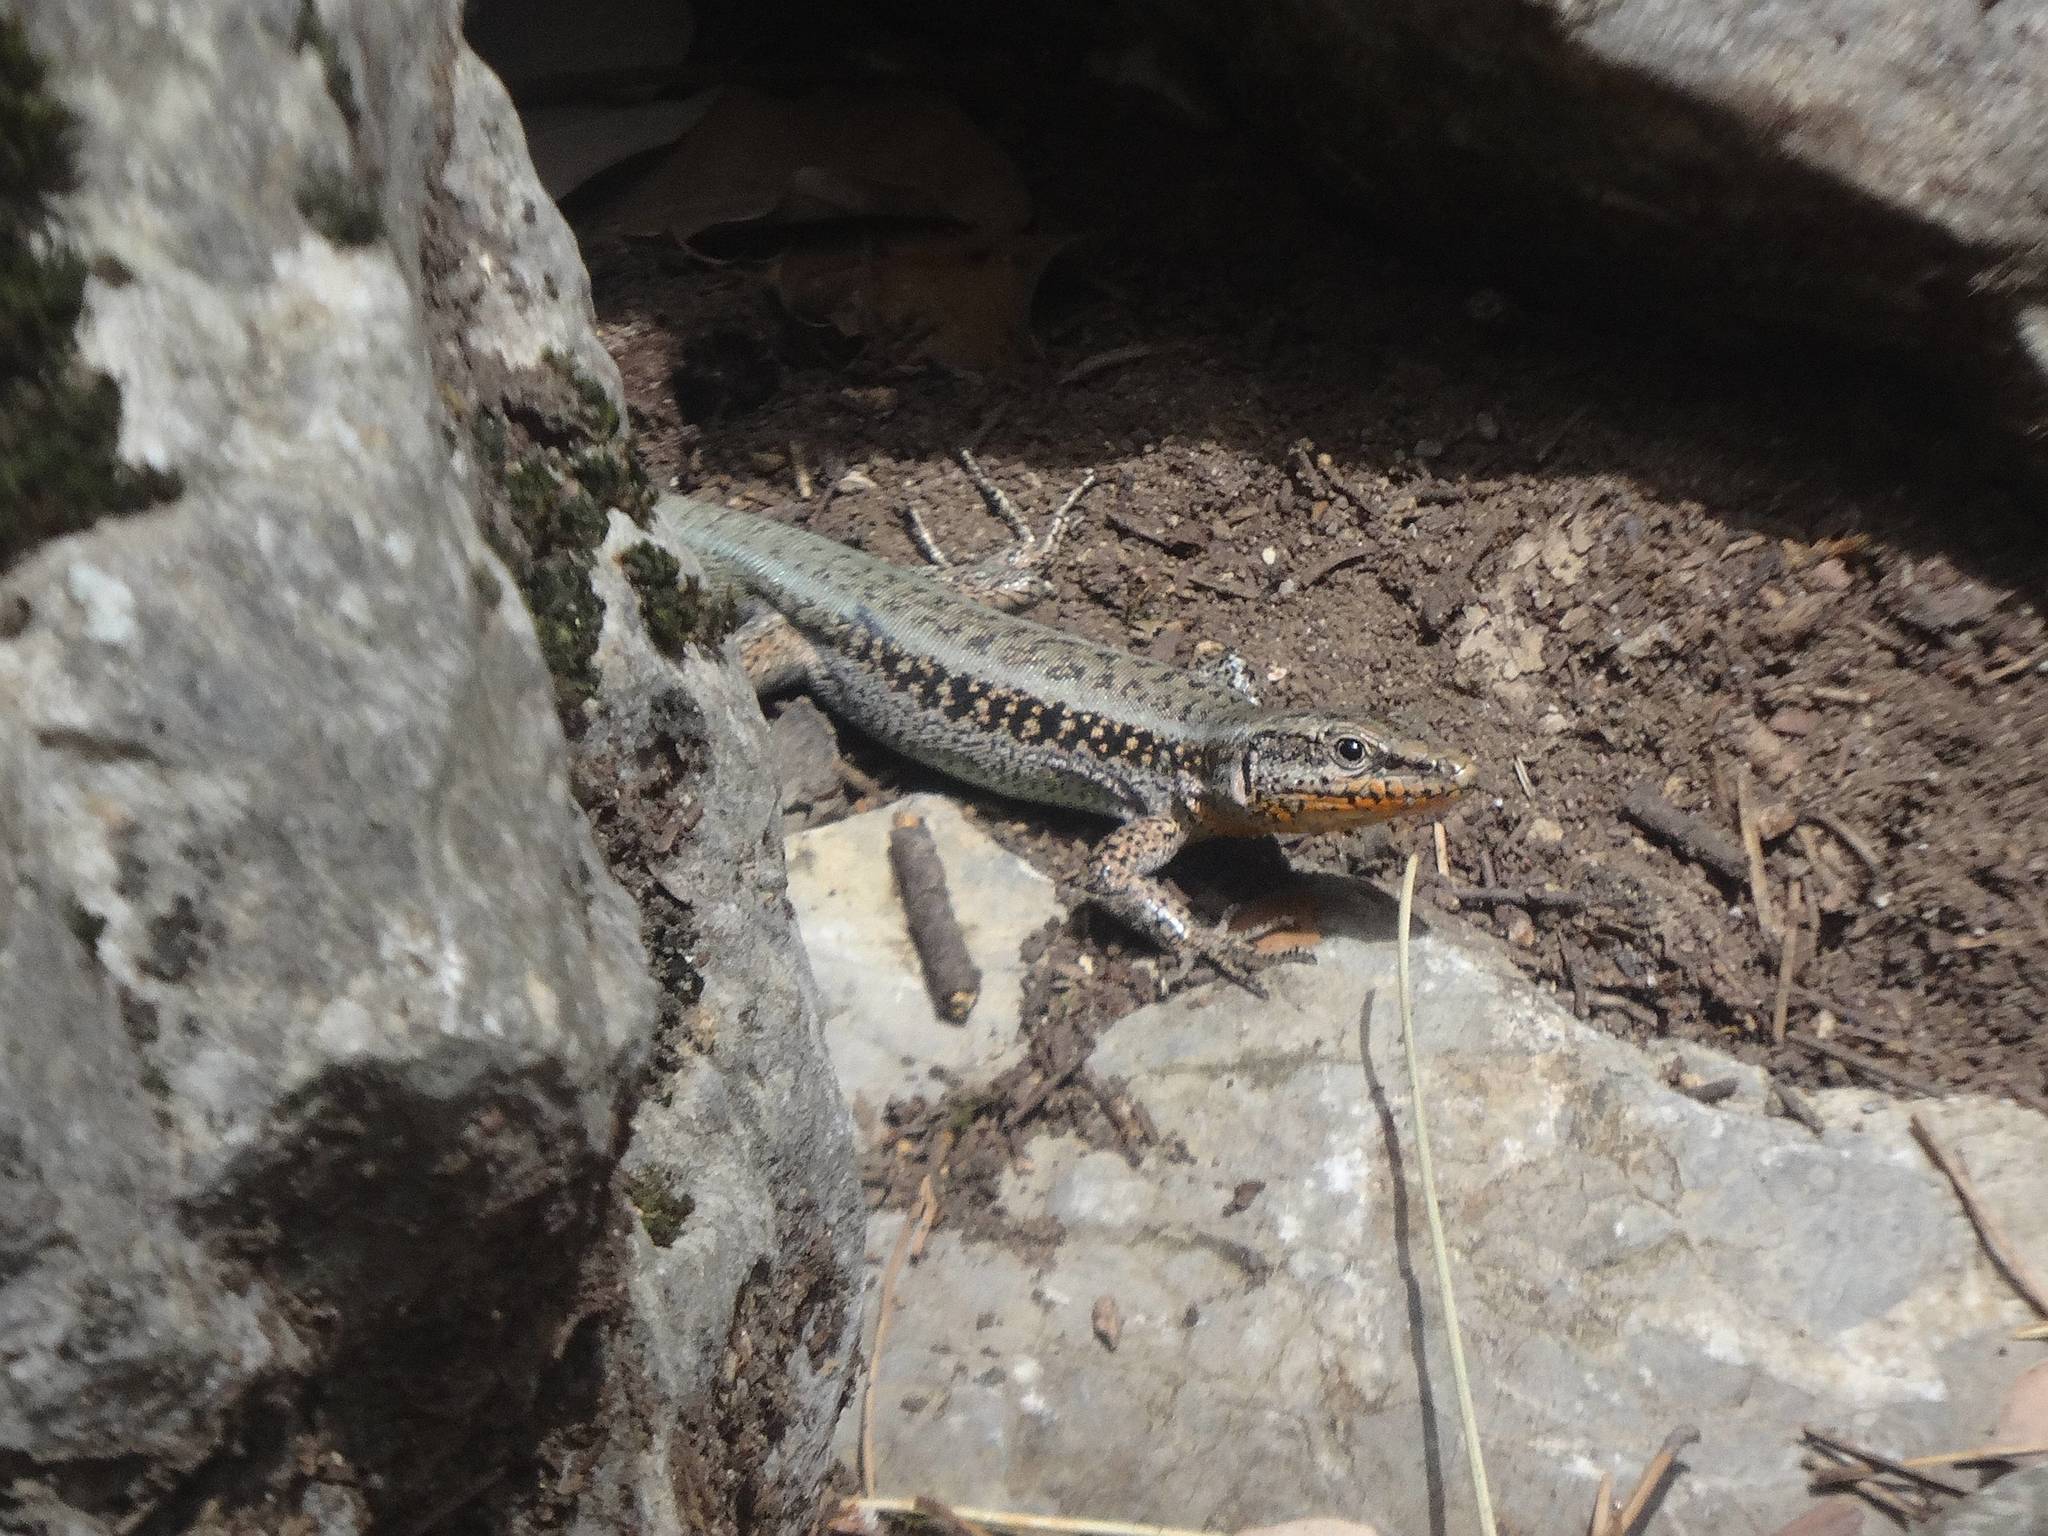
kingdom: Animalia
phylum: Chordata
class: Squamata
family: Lacertidae
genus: Anatololacerta
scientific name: Anatololacerta finikensis
